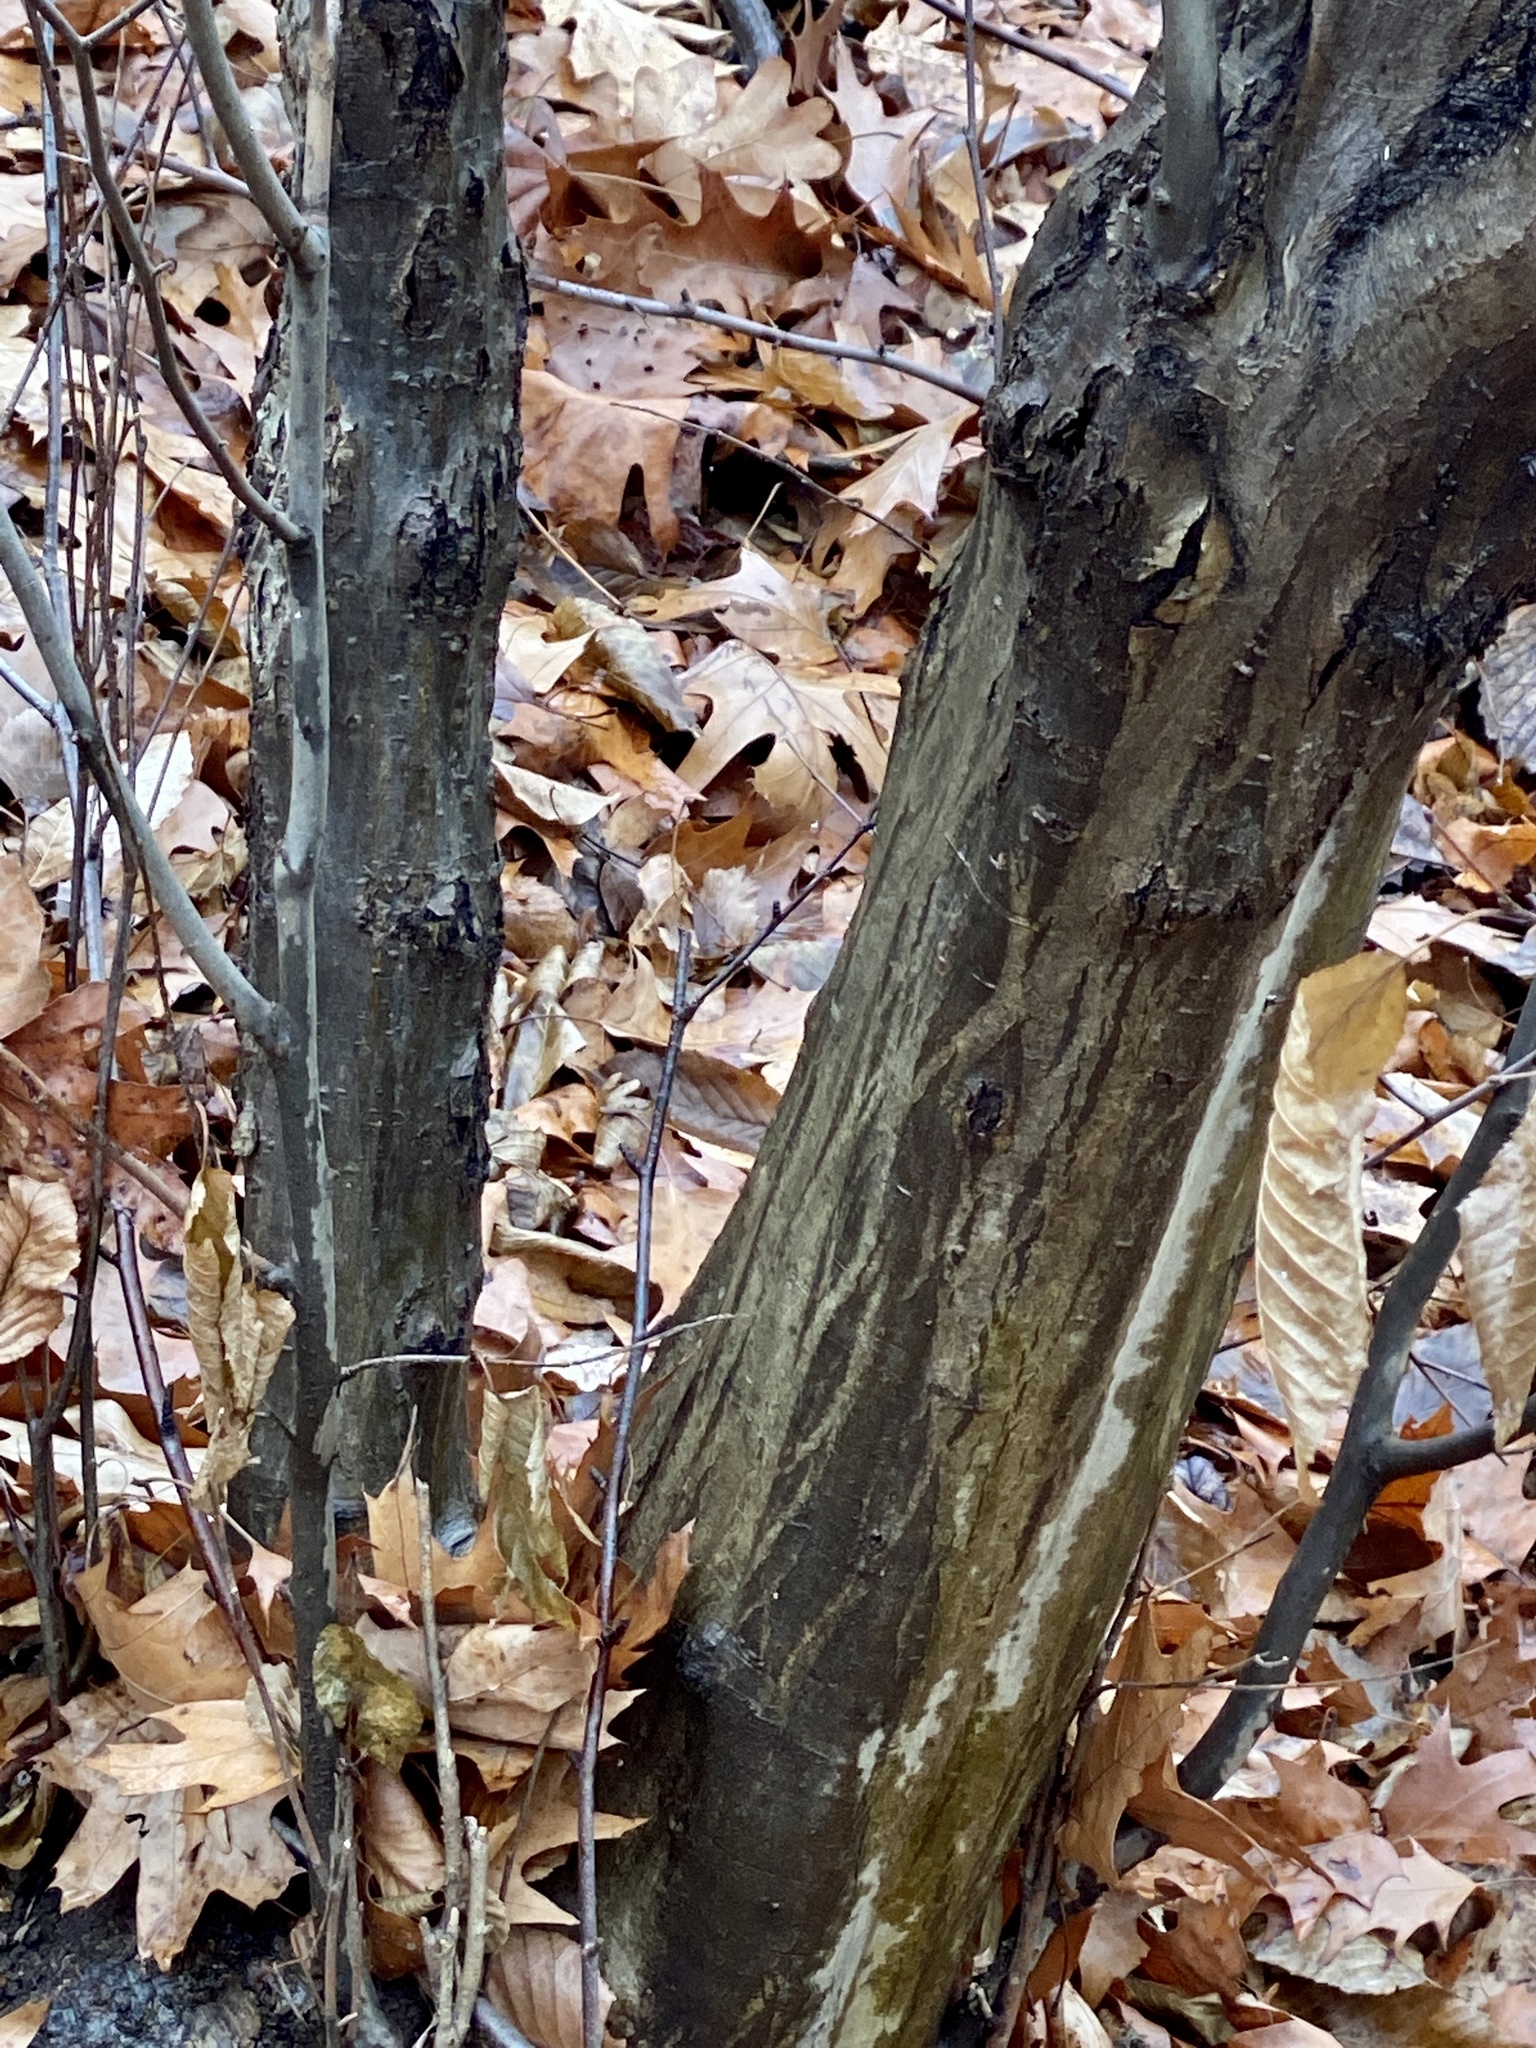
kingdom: Plantae
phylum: Tracheophyta
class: Magnoliopsida
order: Fagales
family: Betulaceae
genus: Carpinus
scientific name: Carpinus caroliniana
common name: American hornbeam
